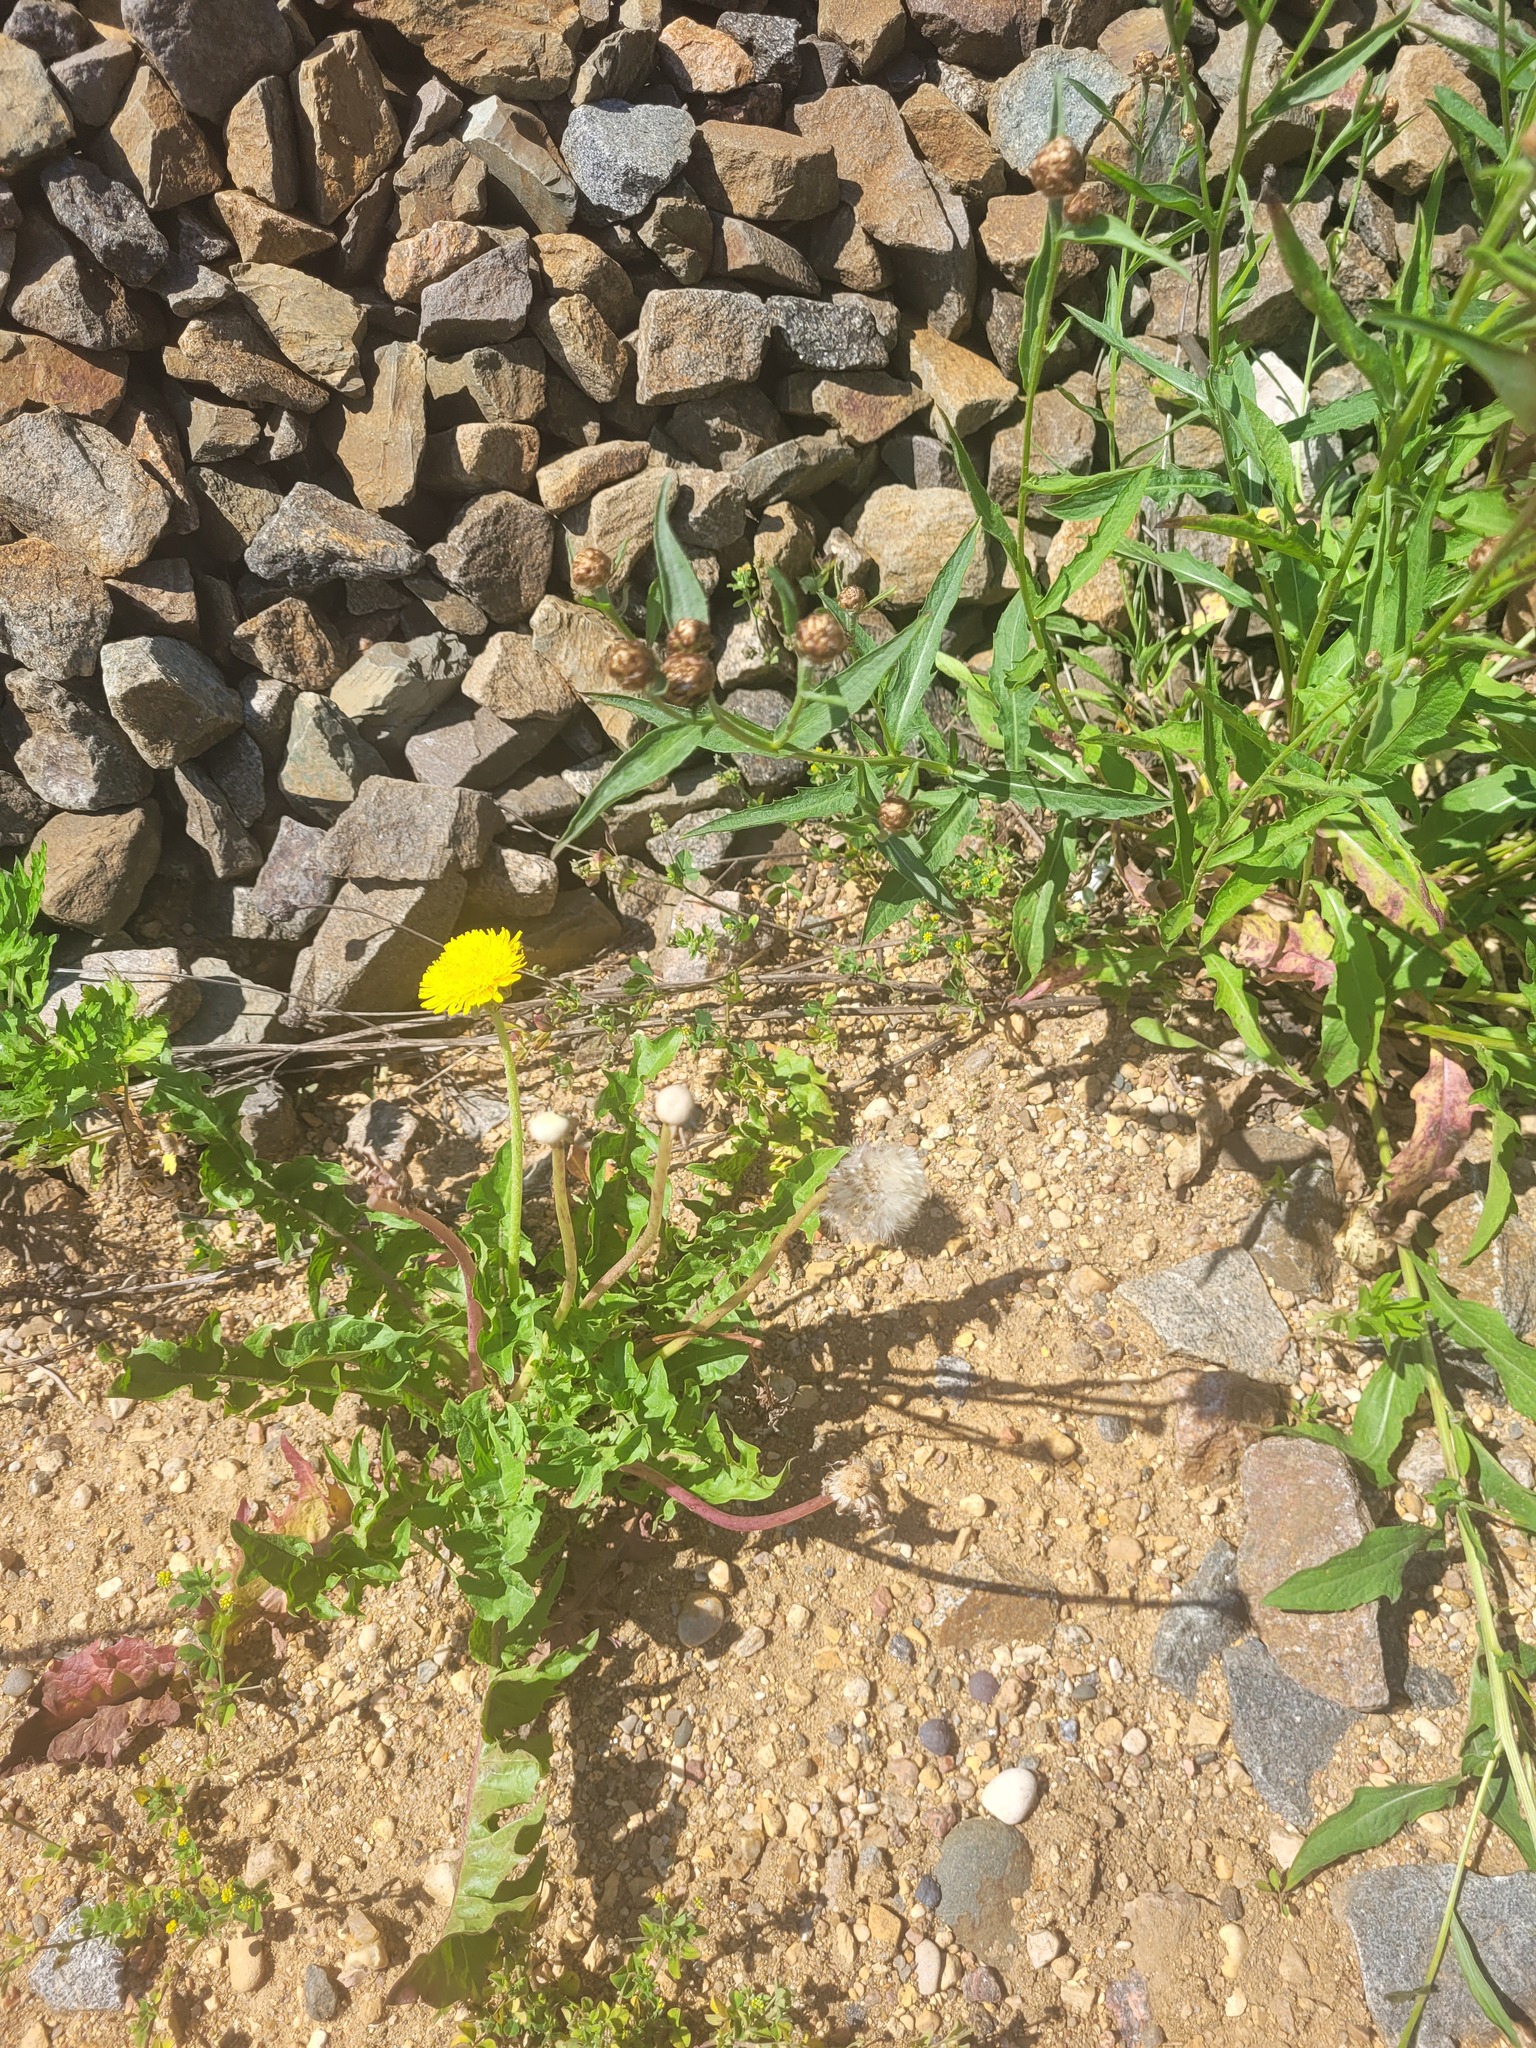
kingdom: Plantae
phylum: Tracheophyta
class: Magnoliopsida
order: Asterales
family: Asteraceae
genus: Taraxacum
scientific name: Taraxacum officinale
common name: Common dandelion
